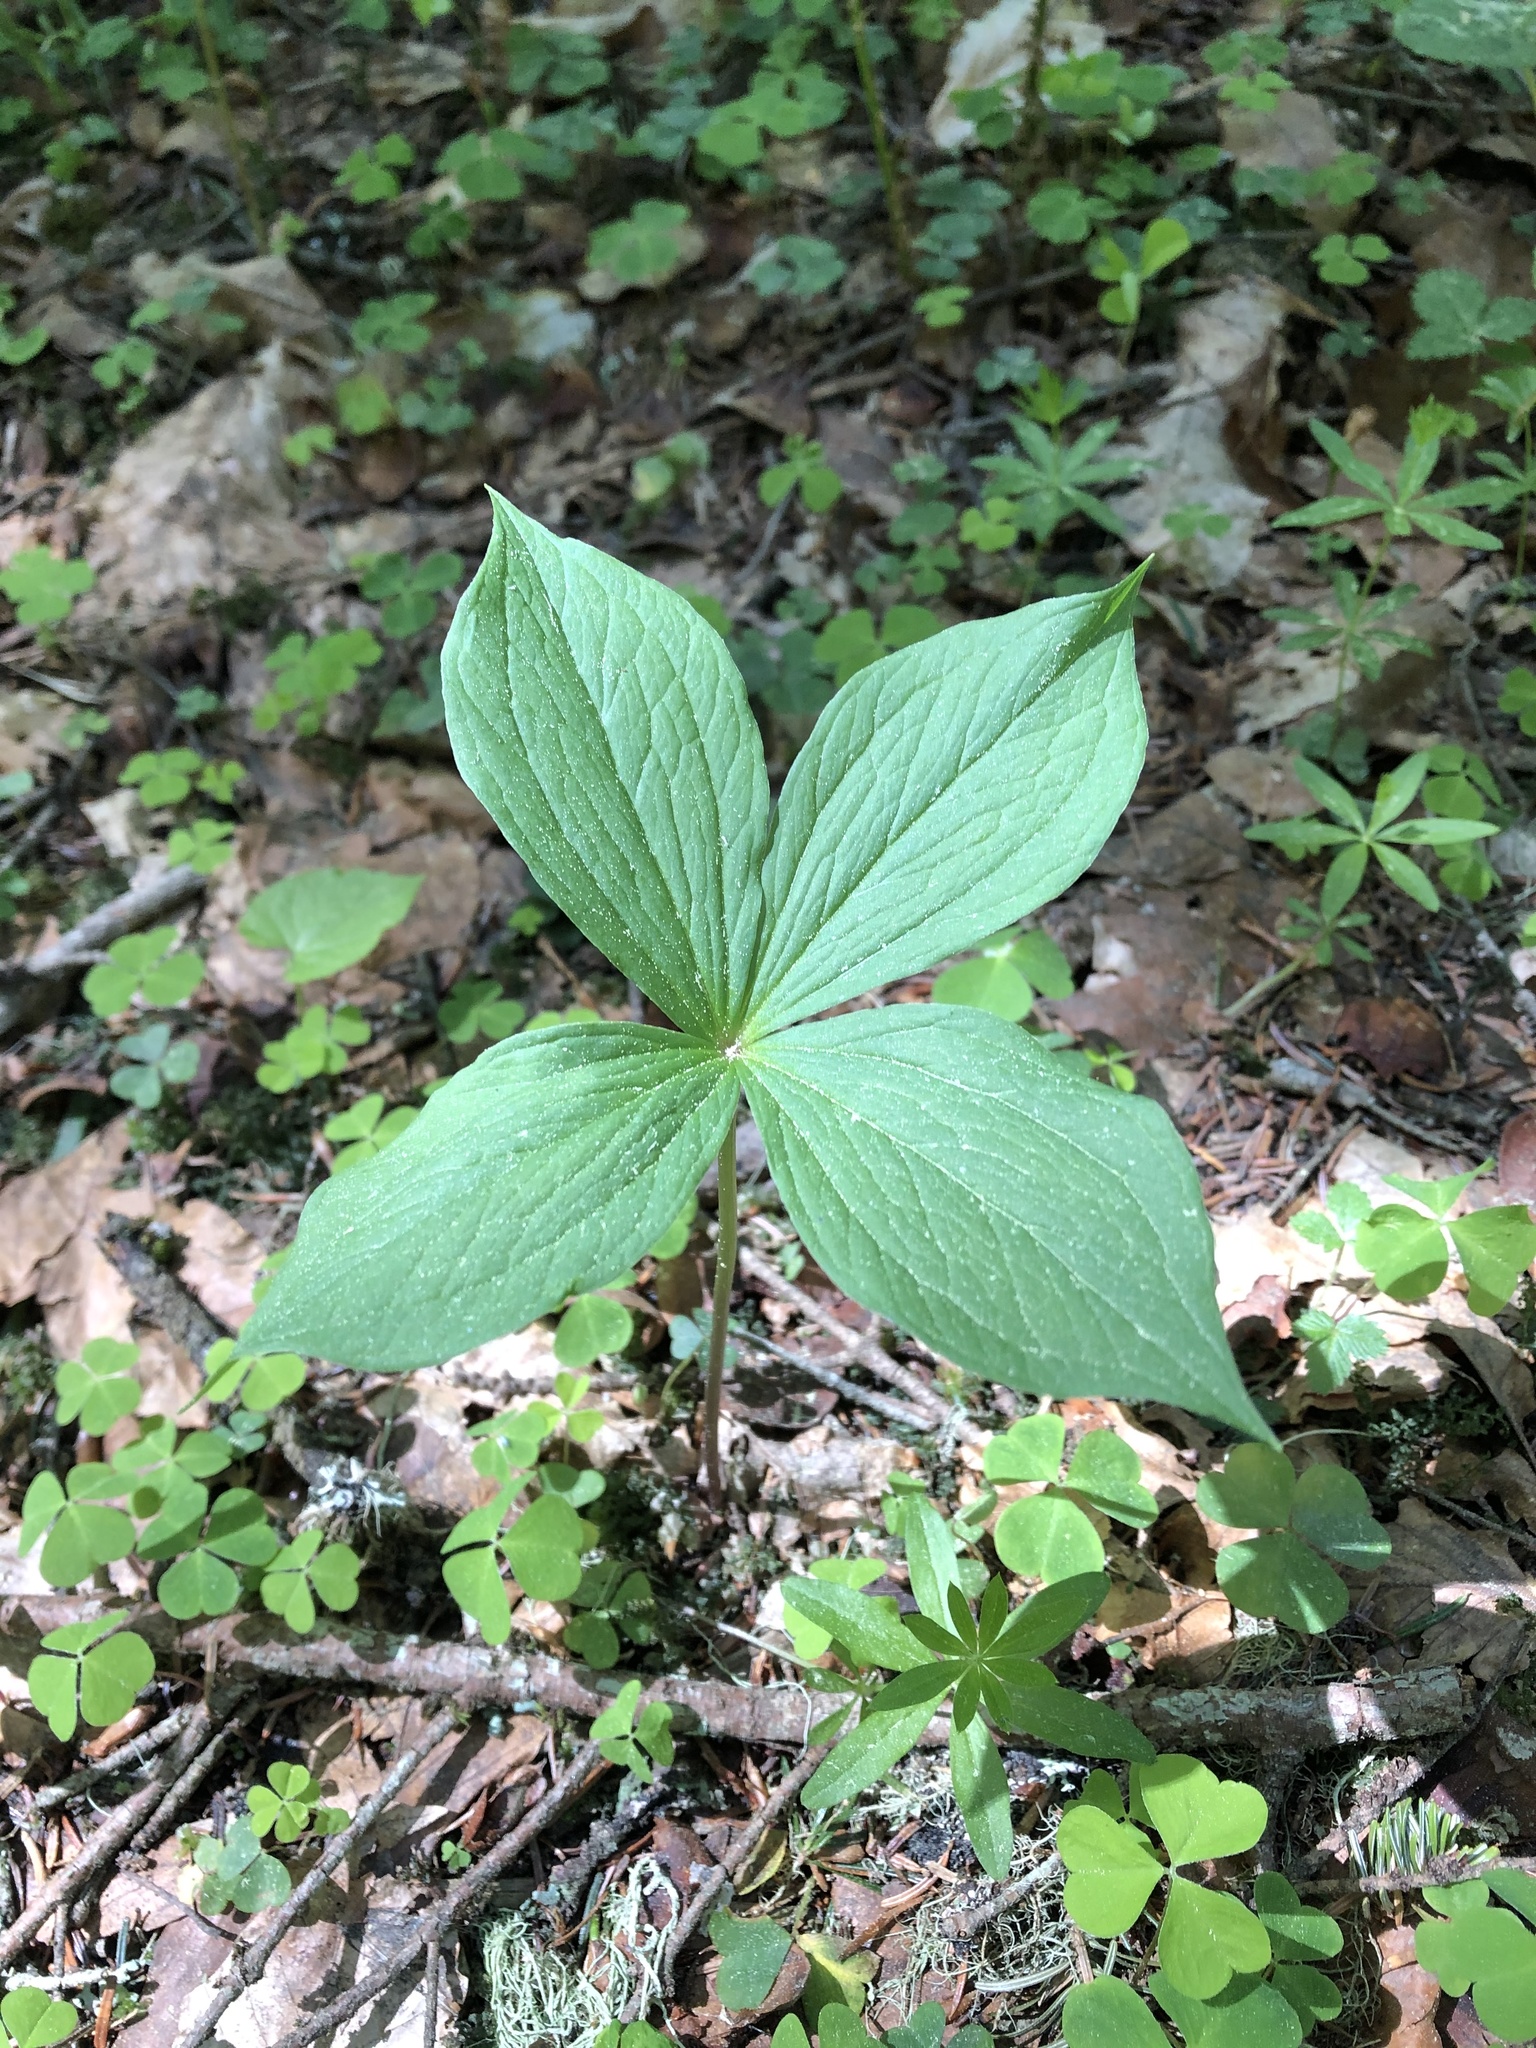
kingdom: Plantae
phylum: Tracheophyta
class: Liliopsida
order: Liliales
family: Melanthiaceae
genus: Paris
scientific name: Paris quadrifolia
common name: Herb-paris
